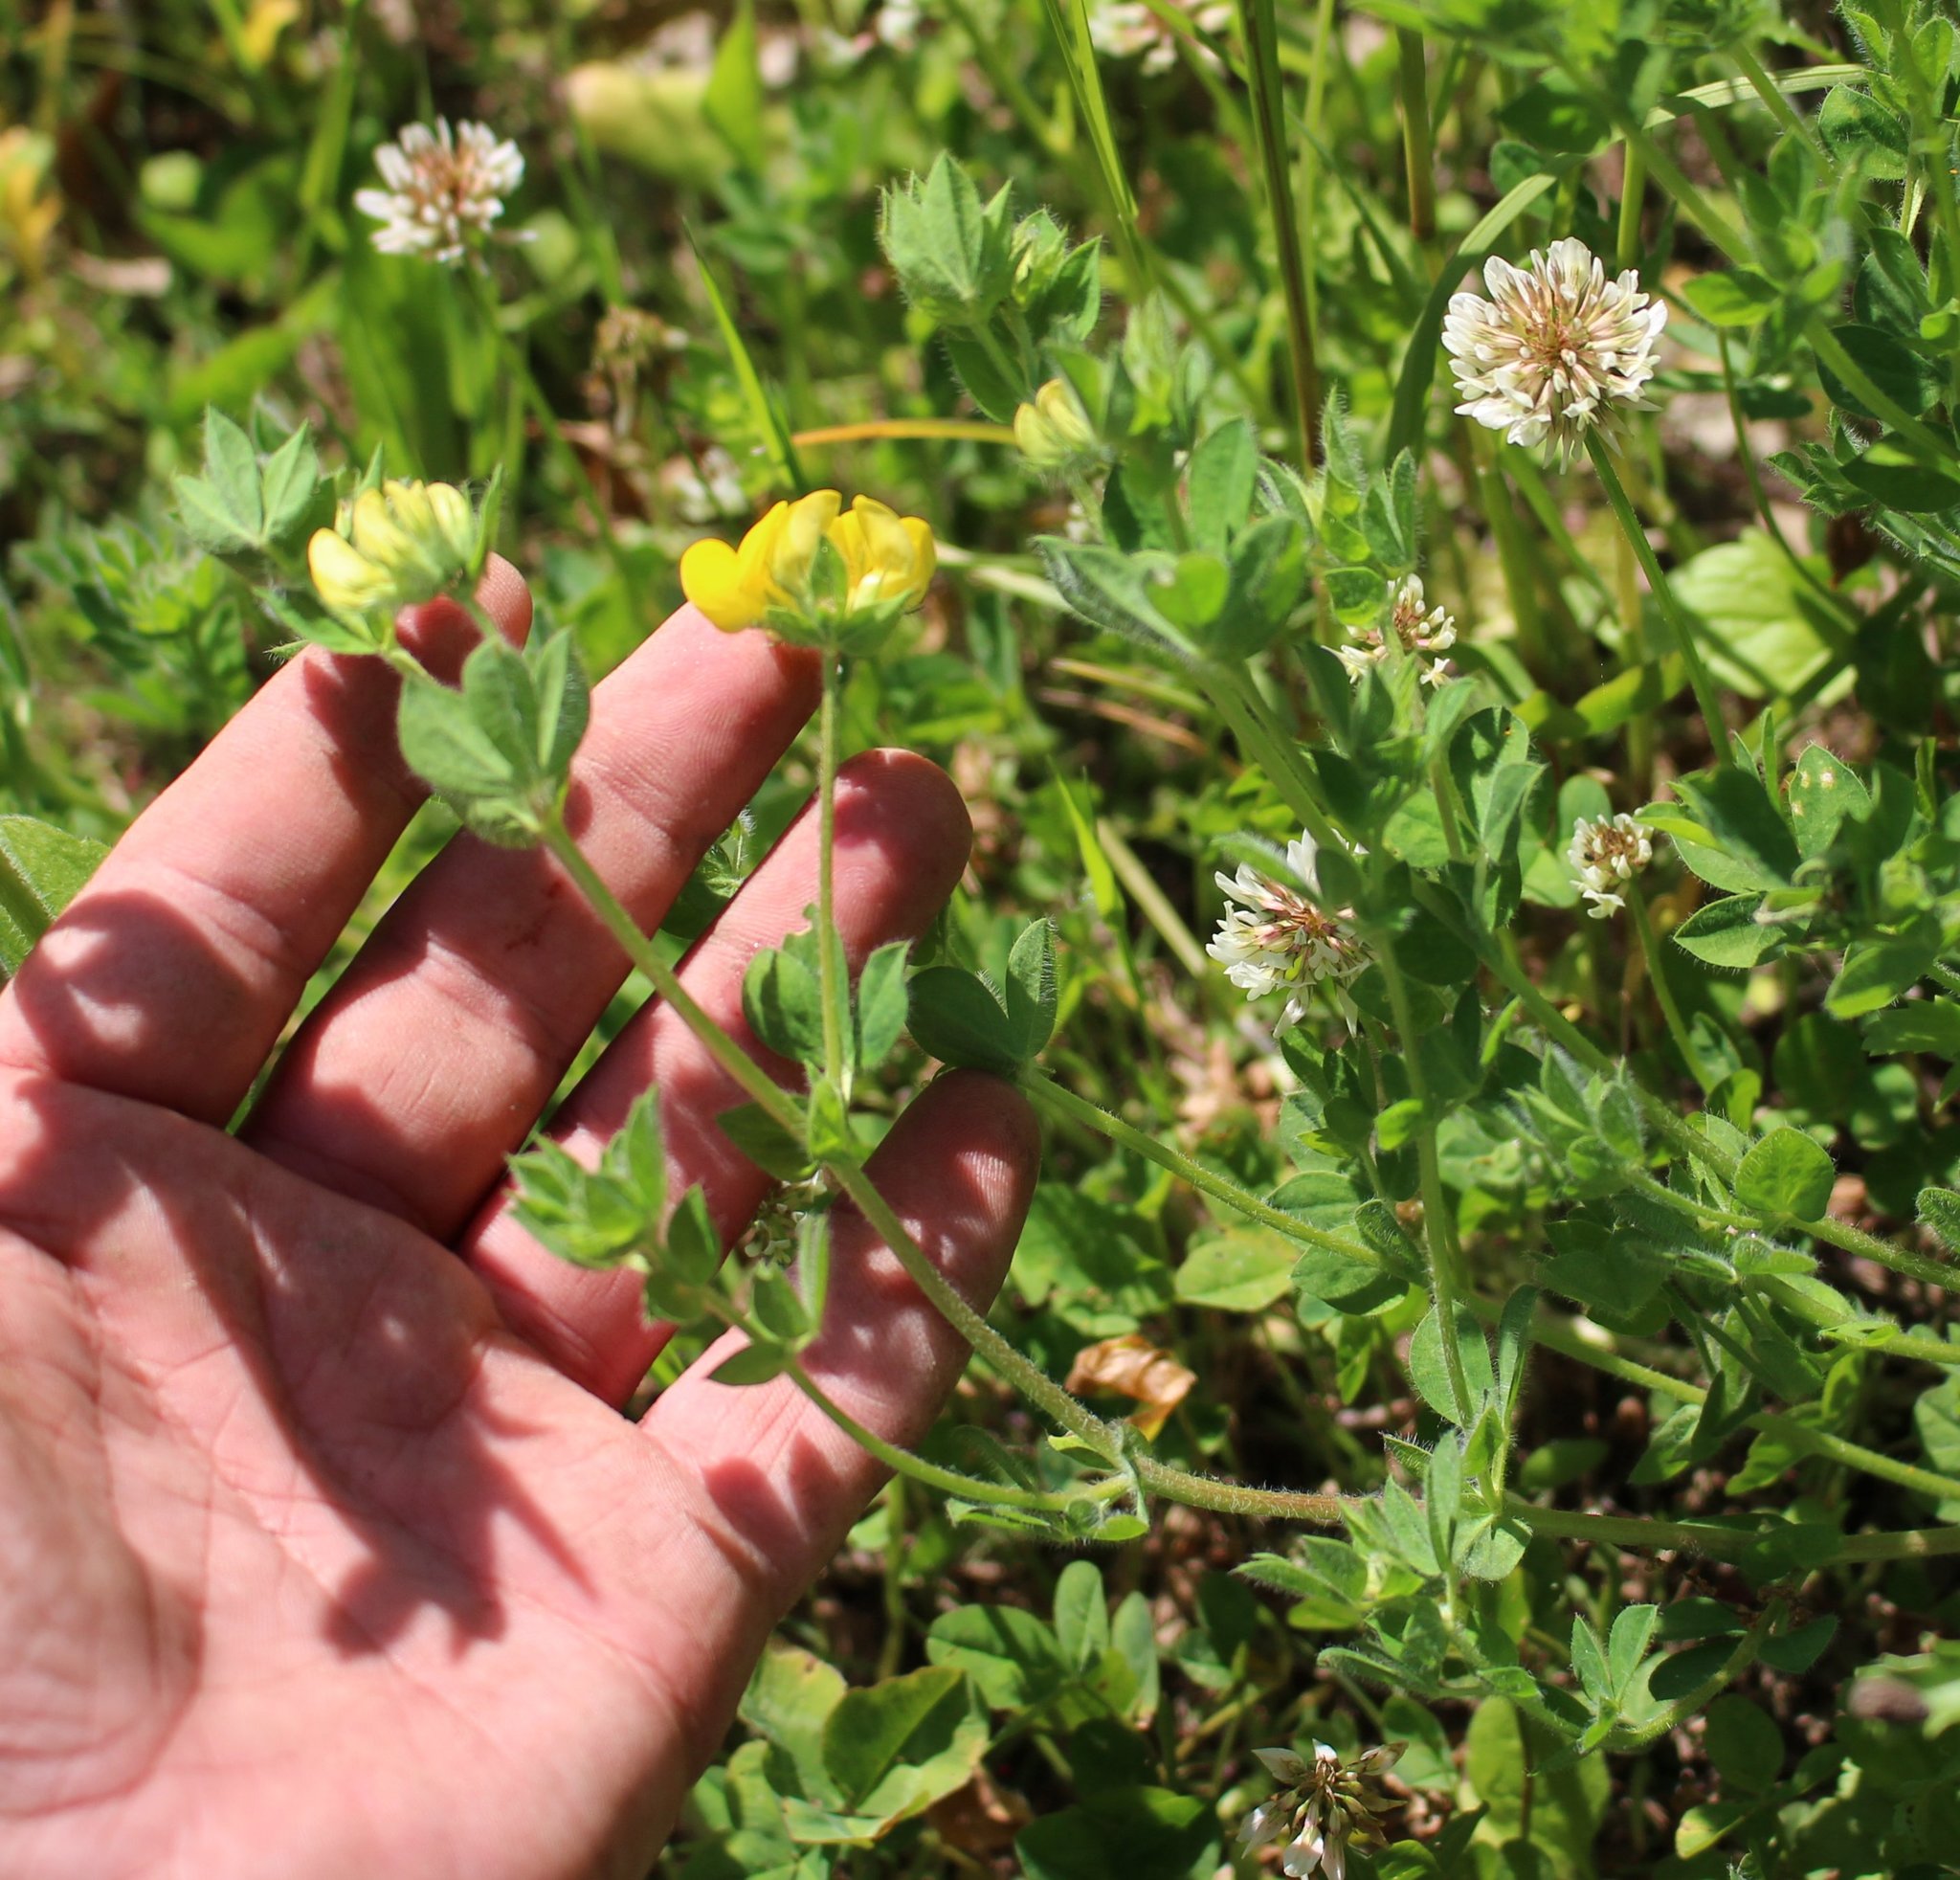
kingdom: Plantae
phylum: Tracheophyta
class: Magnoliopsida
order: Fabales
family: Fabaceae
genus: Lotus
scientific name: Lotus corniculatus
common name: Common bird's-foot-trefoil
